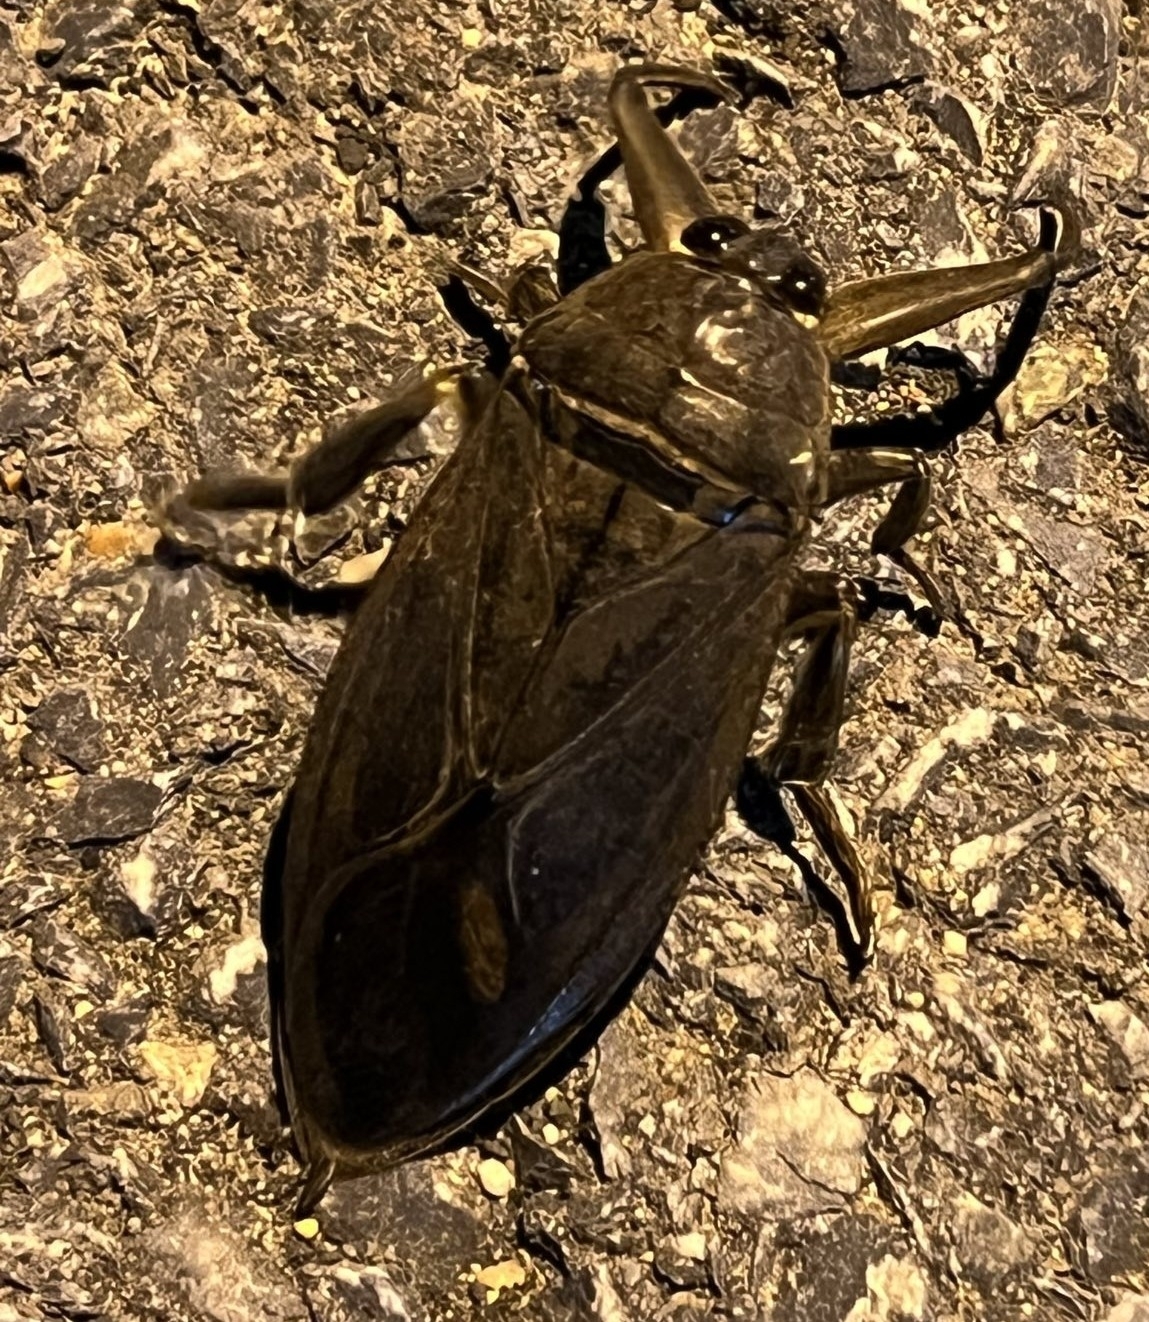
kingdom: Animalia
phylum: Arthropoda
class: Insecta
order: Hemiptera
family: Belostomatidae
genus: Lethocerus
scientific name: Lethocerus americanus
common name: Giant water bug
